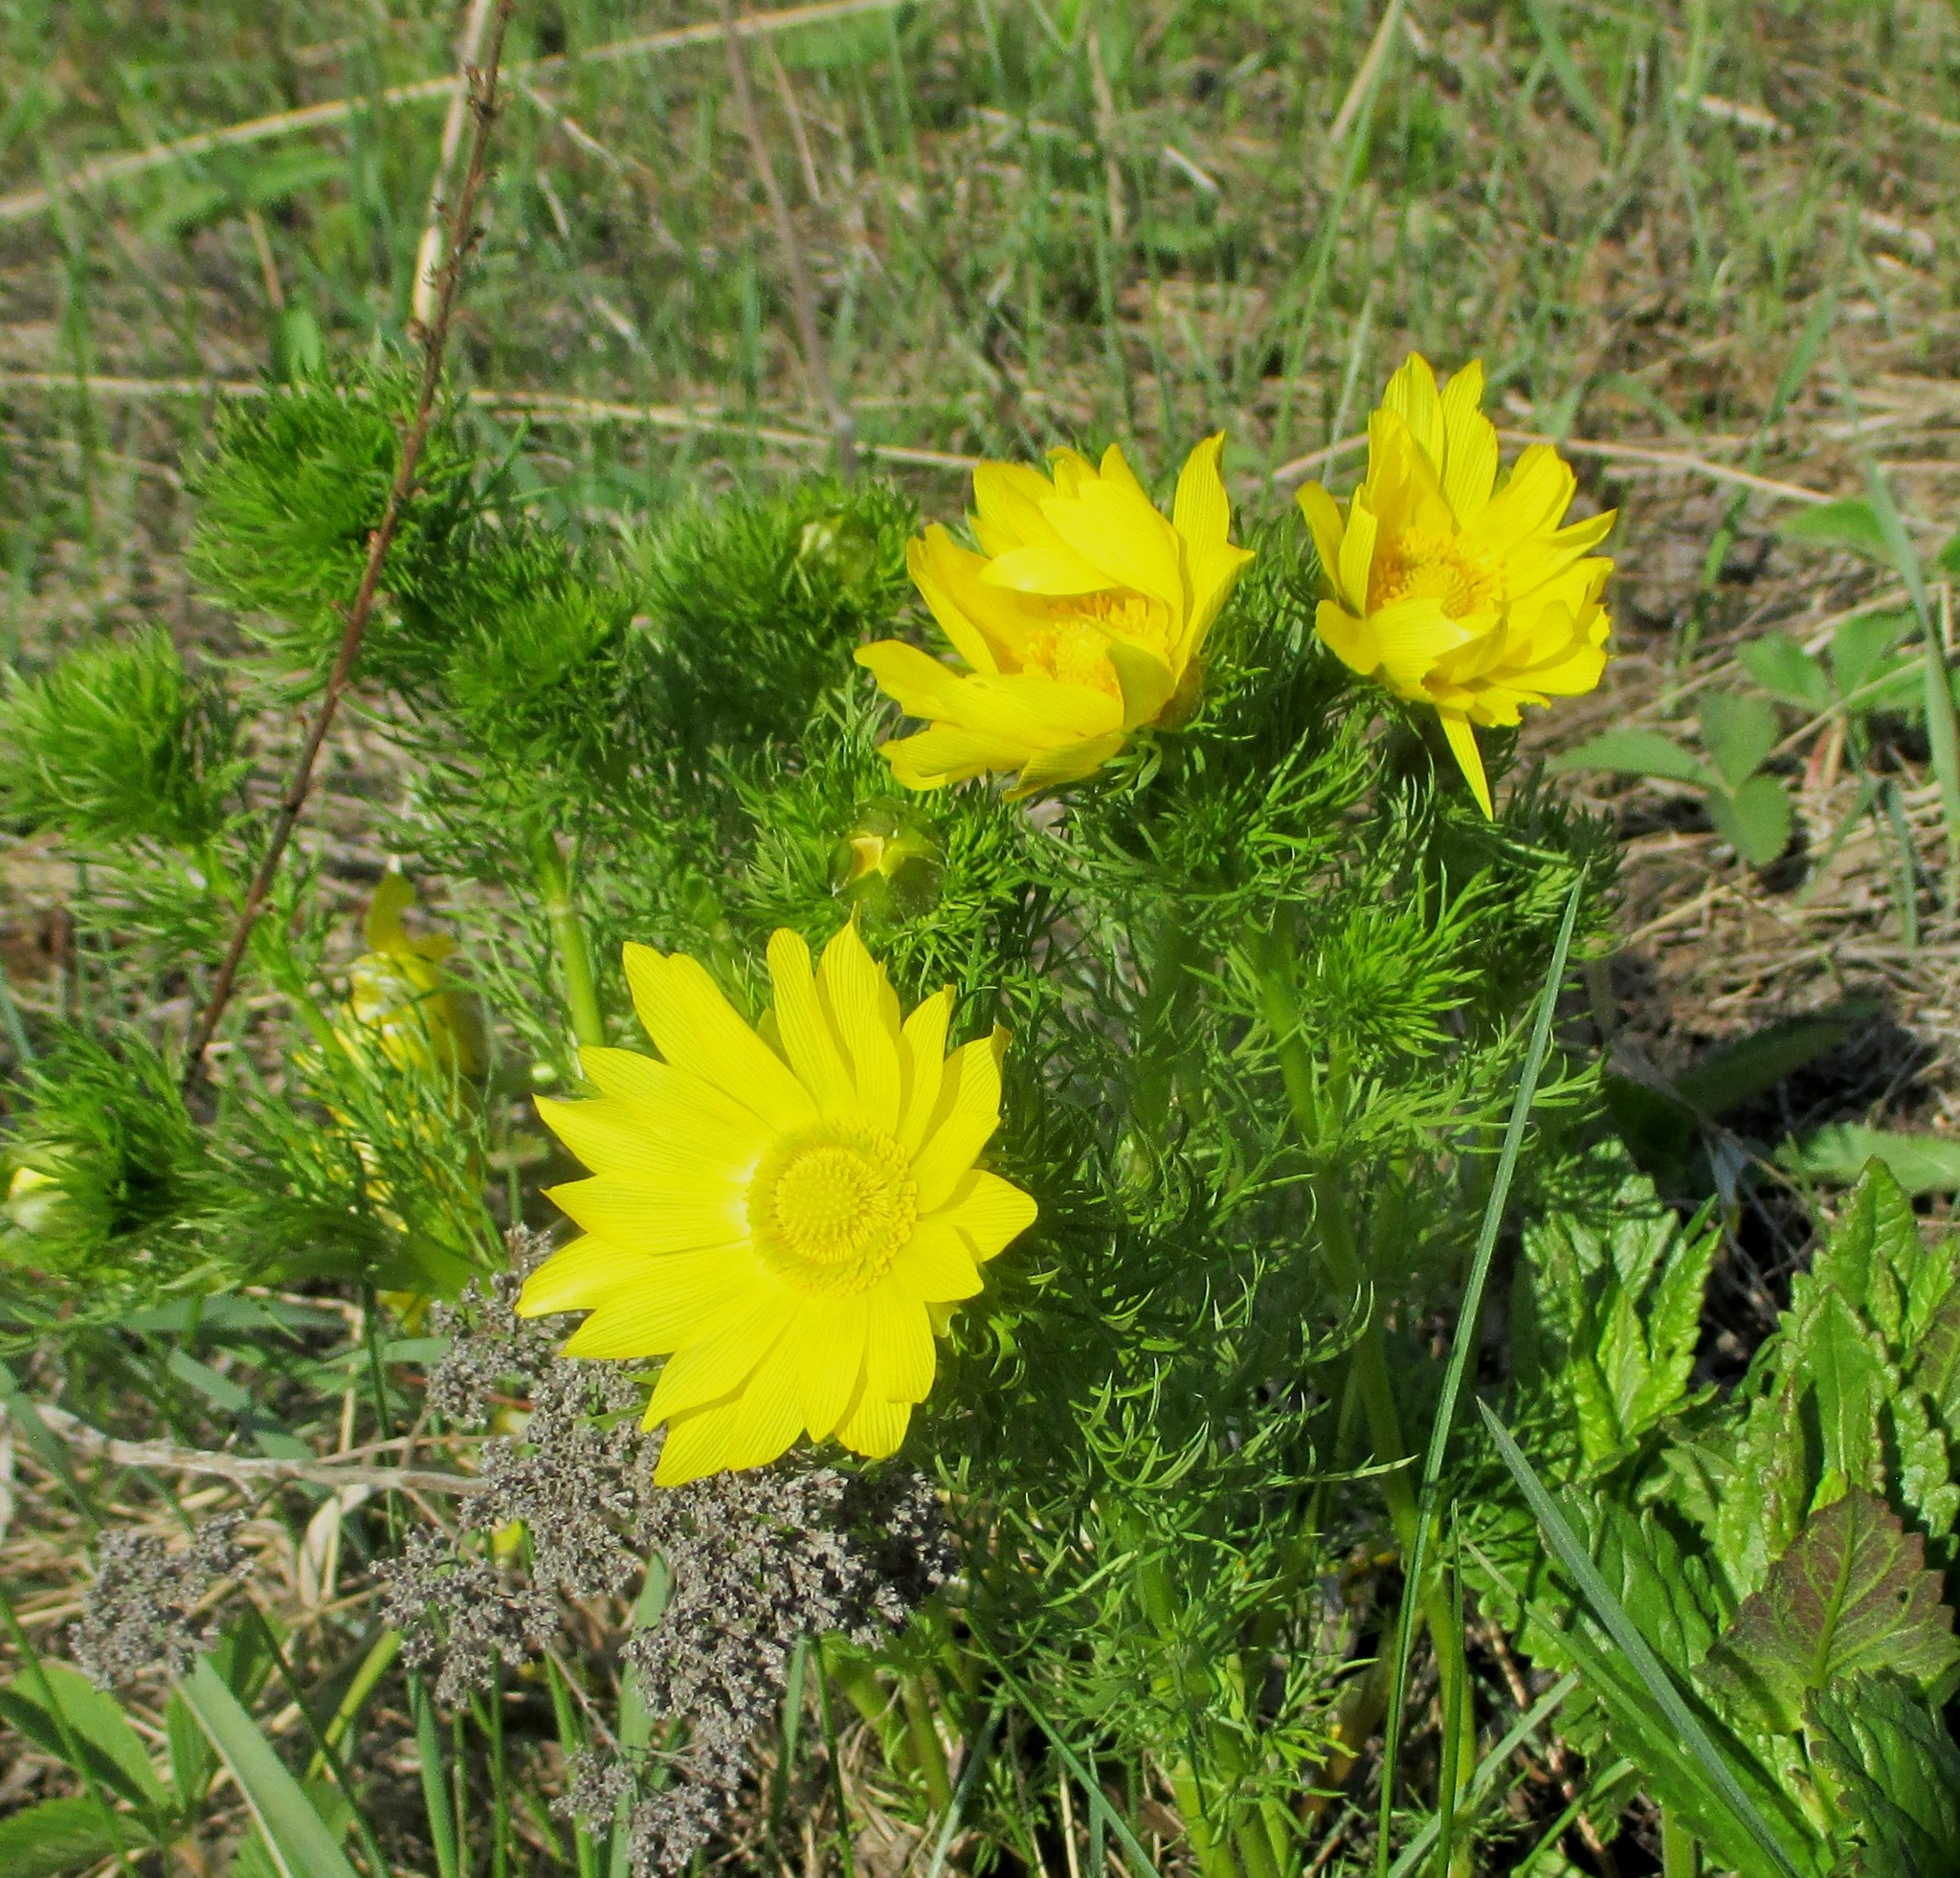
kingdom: Plantae
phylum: Tracheophyta
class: Magnoliopsida
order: Ranunculales
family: Ranunculaceae
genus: Adonis
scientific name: Adonis vernalis
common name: Yellow pheasants-eye
